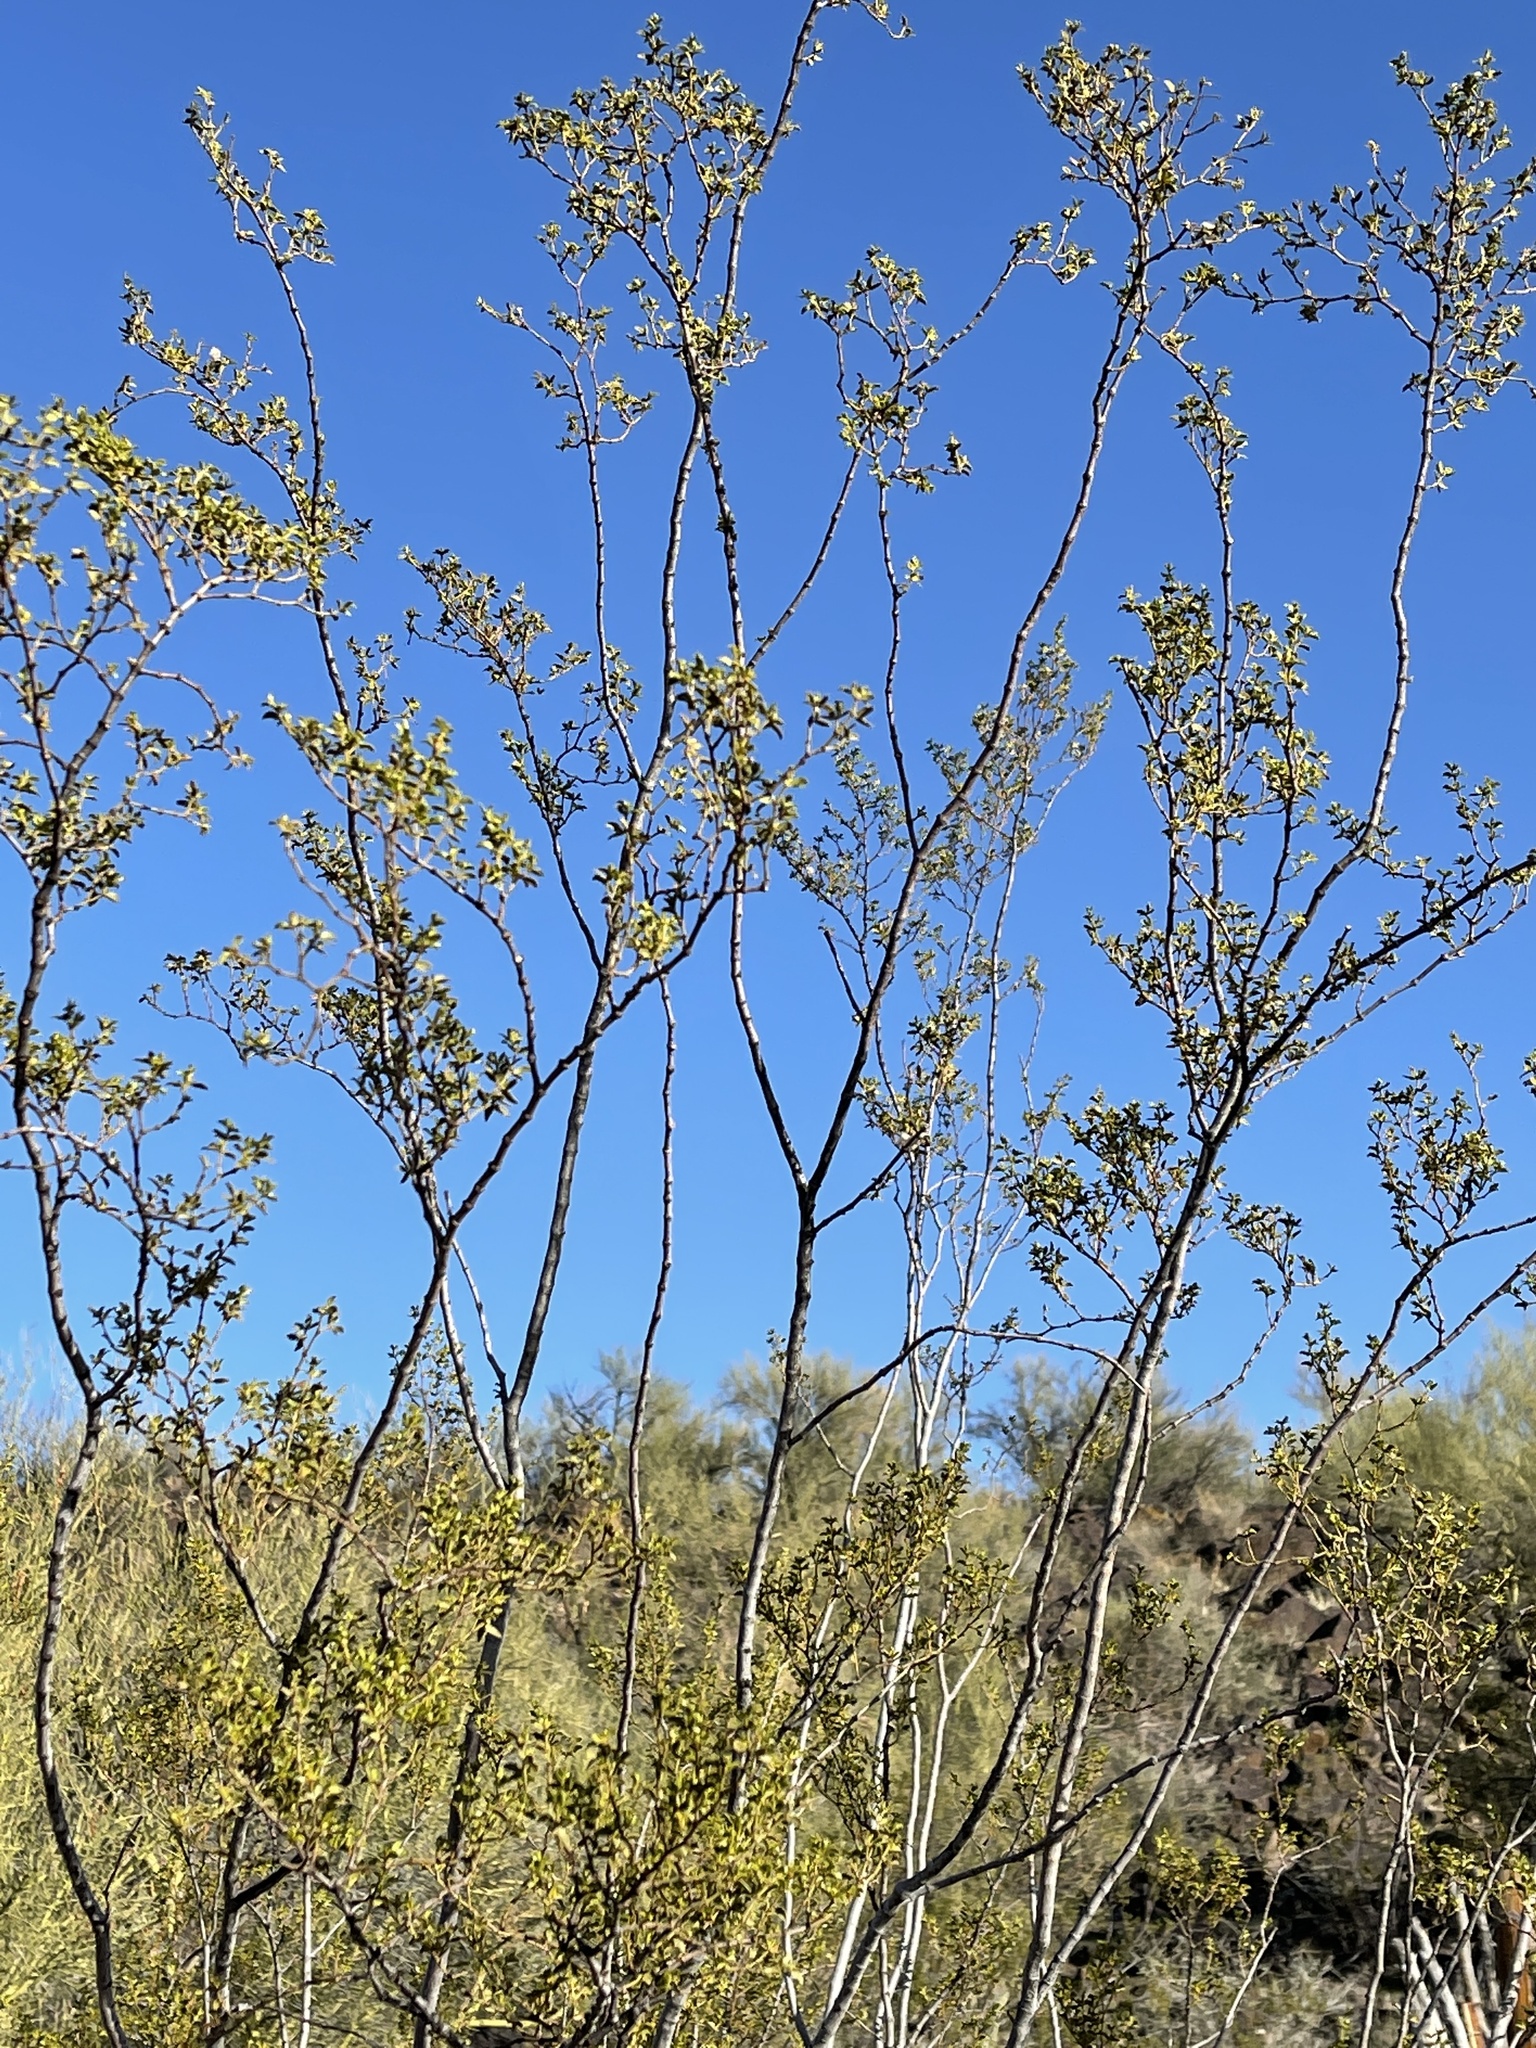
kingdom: Plantae
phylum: Tracheophyta
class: Magnoliopsida
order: Zygophyllales
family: Zygophyllaceae
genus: Larrea
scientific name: Larrea tridentata
